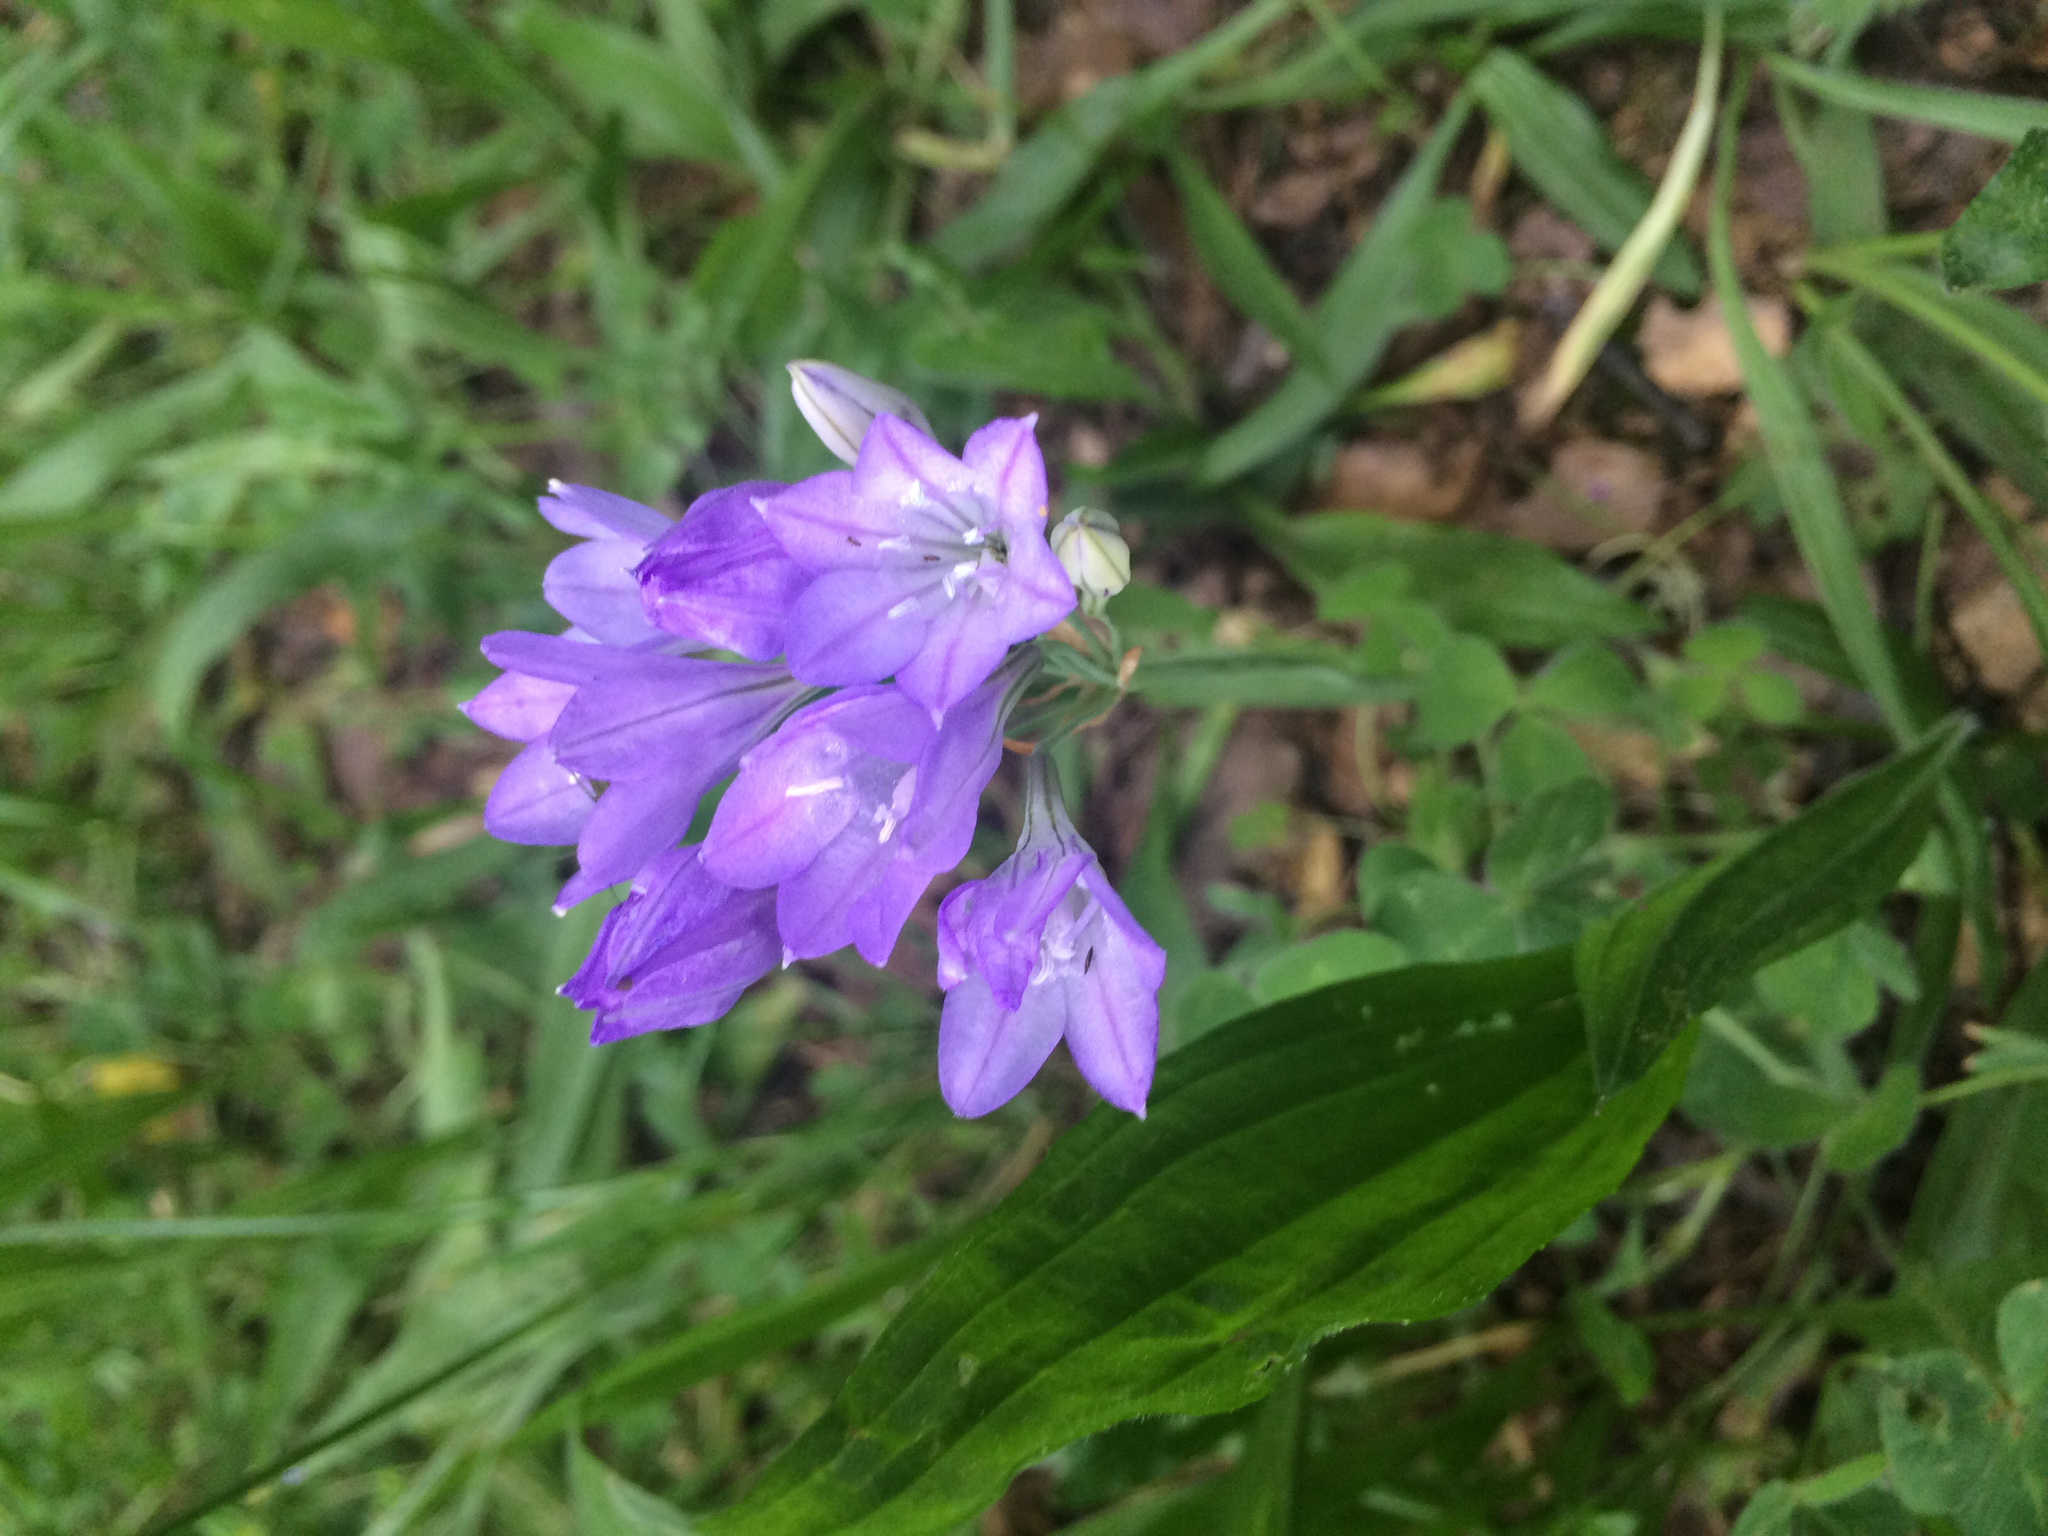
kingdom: Plantae
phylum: Tracheophyta
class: Liliopsida
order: Asparagales
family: Asparagaceae
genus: Triteleia
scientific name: Triteleia laxa
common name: Triplet-lily
